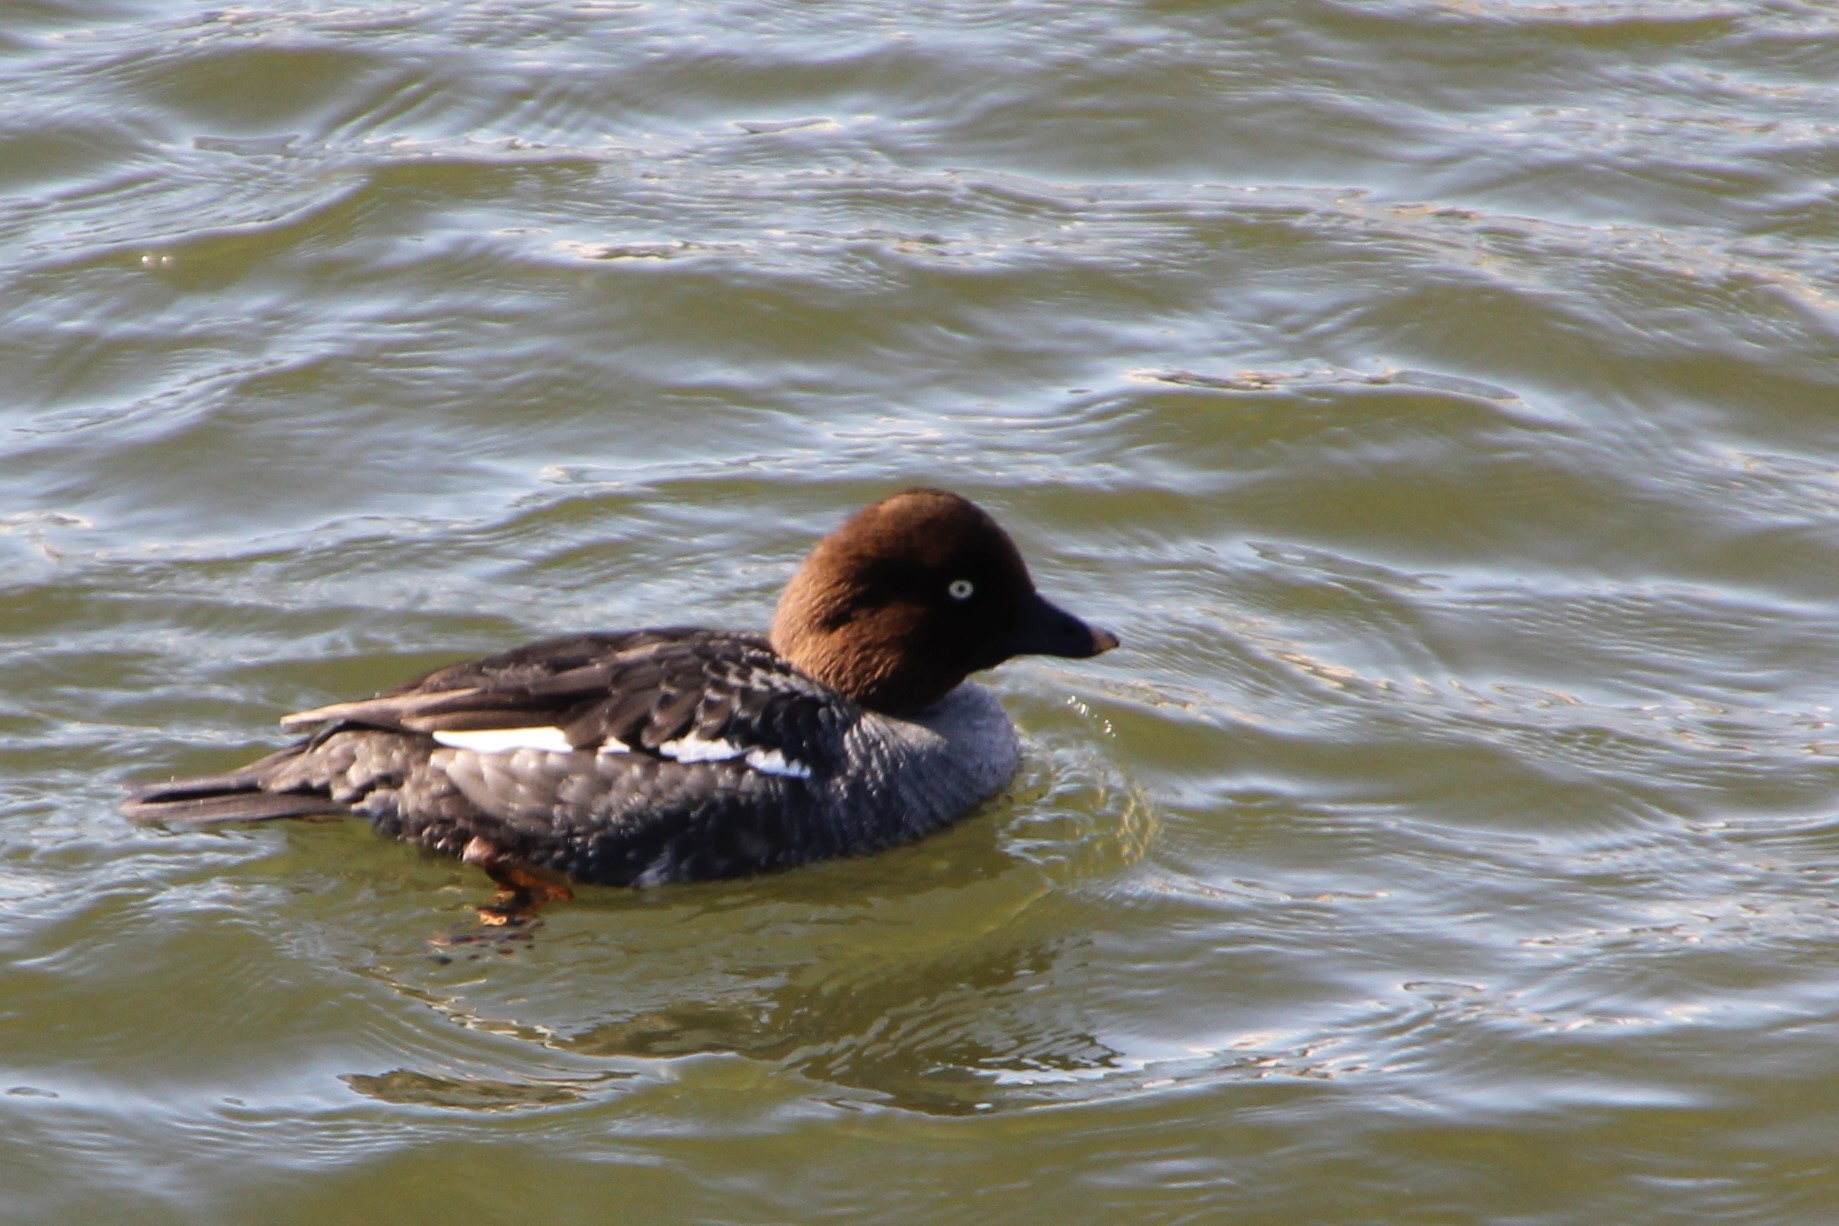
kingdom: Animalia
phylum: Chordata
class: Aves
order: Anseriformes
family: Anatidae
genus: Bucephala
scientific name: Bucephala clangula
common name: Common goldeneye
